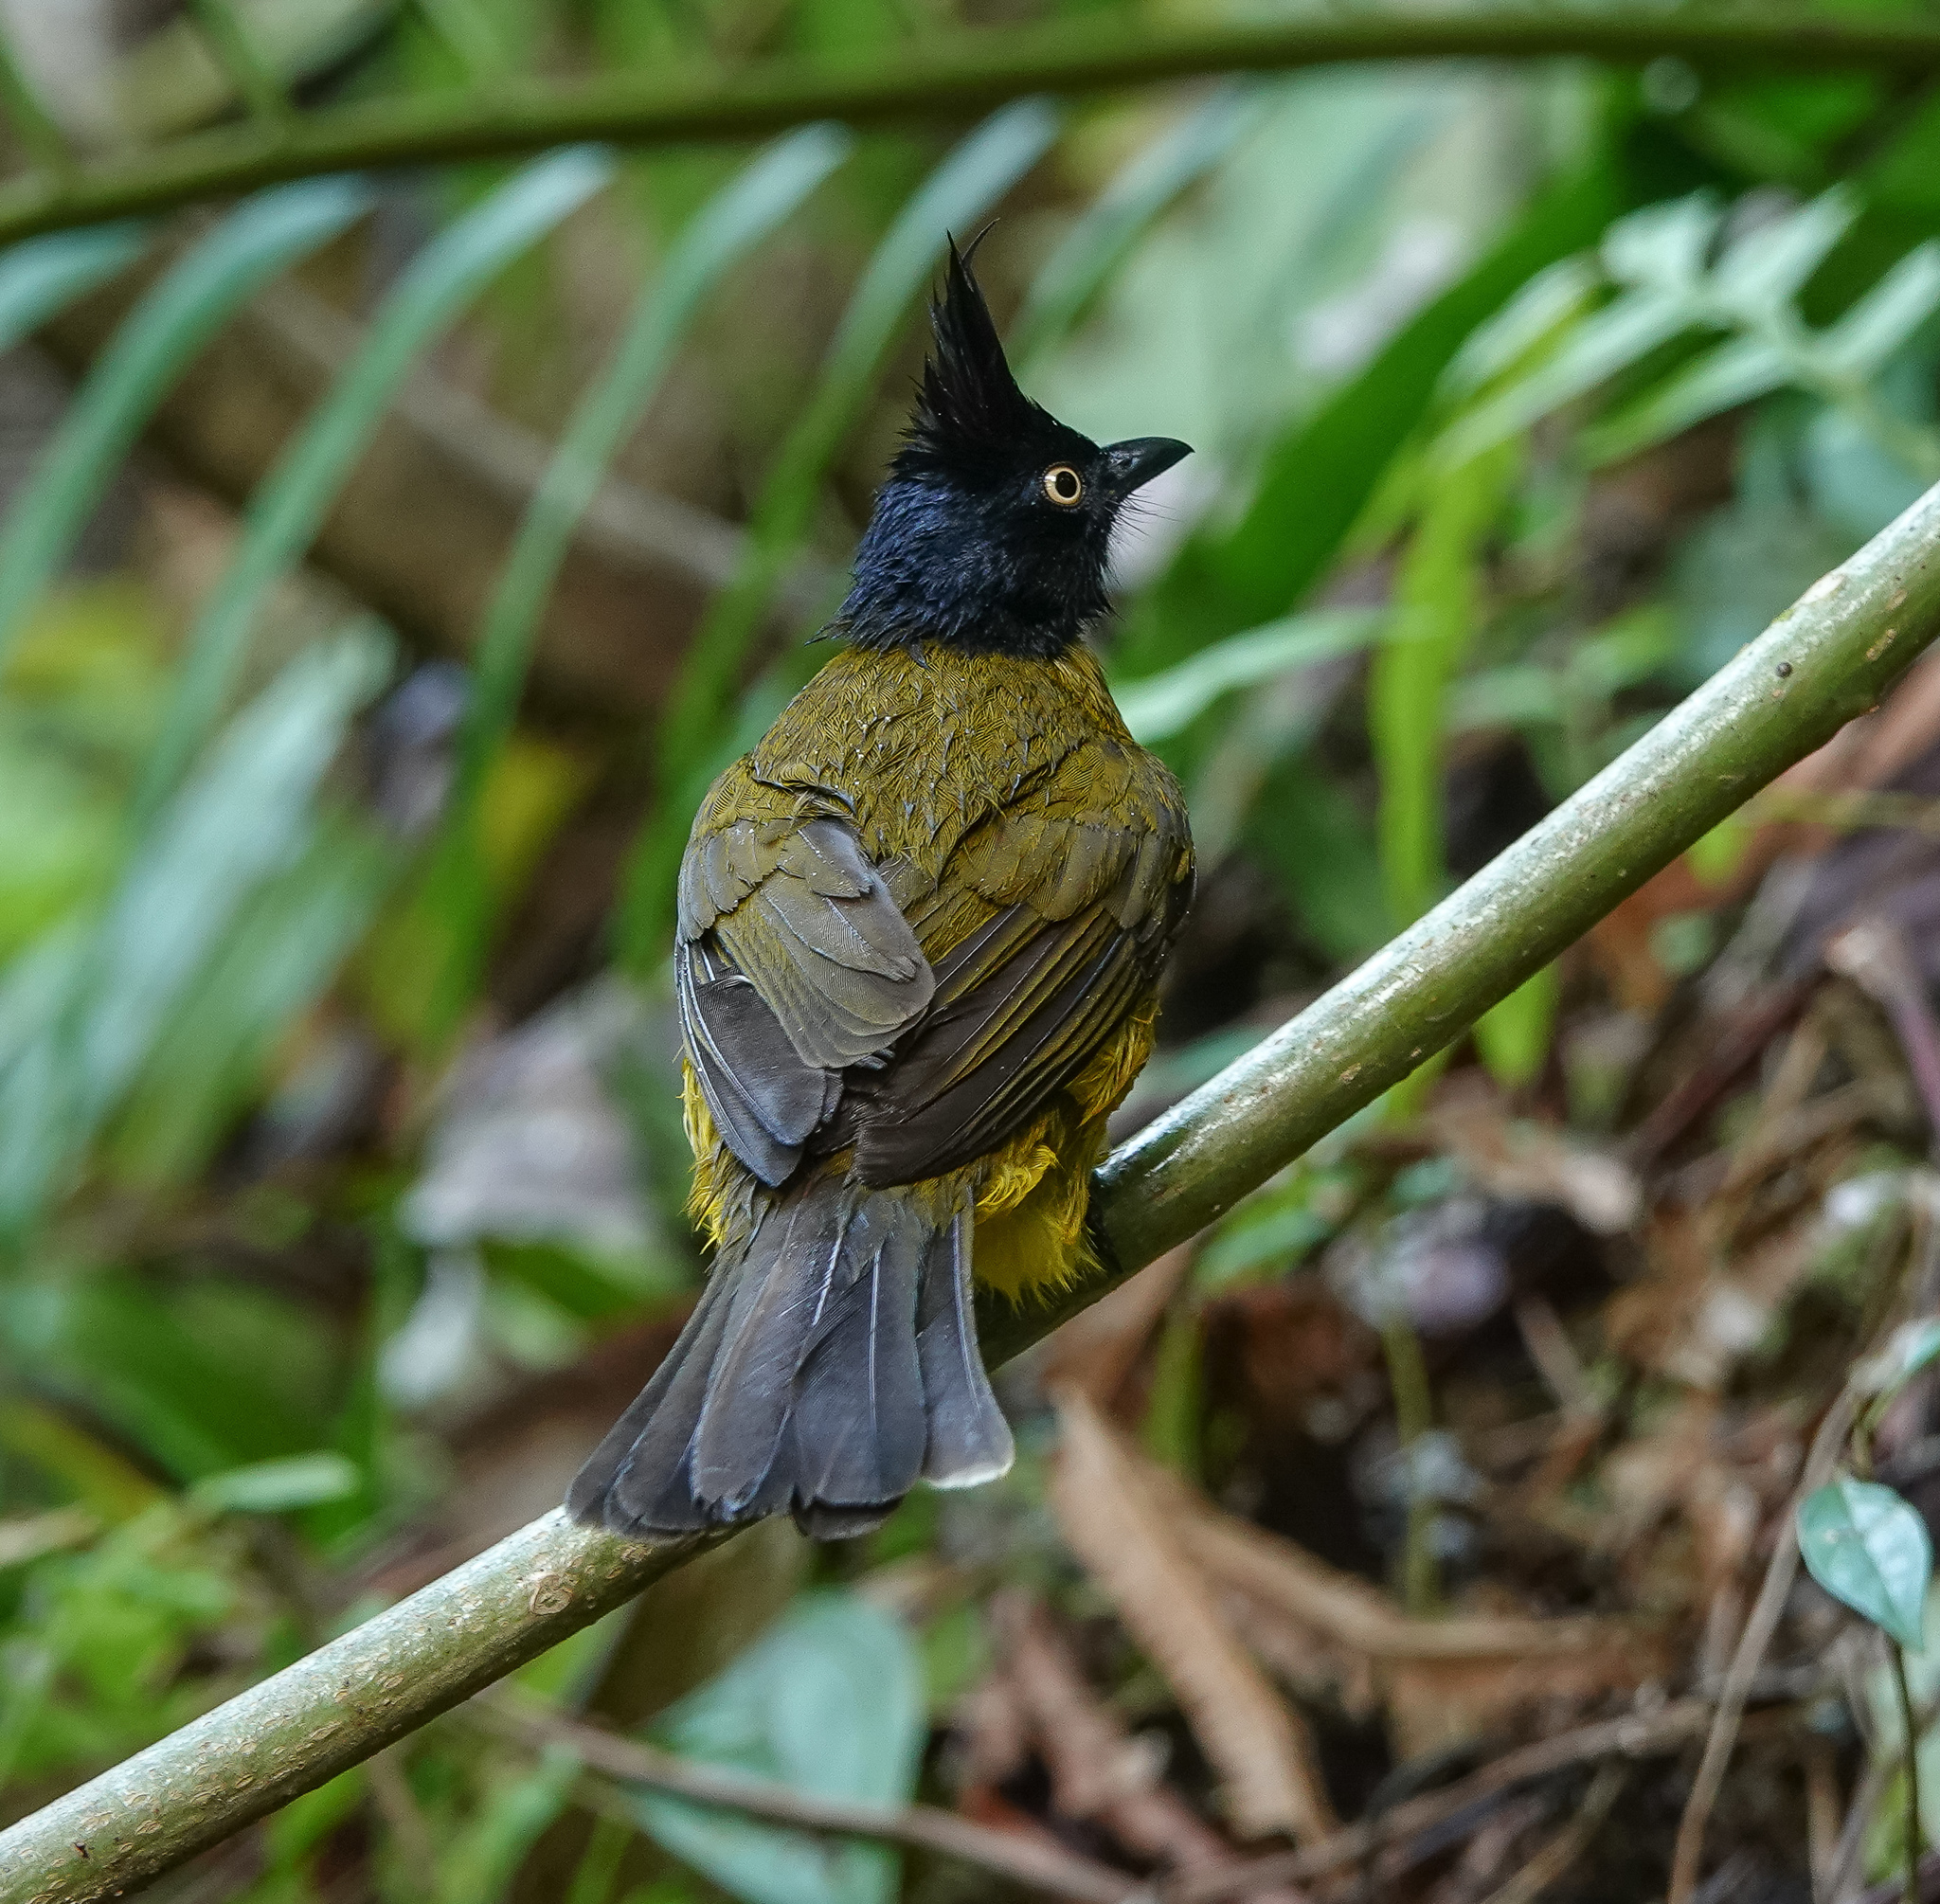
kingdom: Animalia
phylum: Chordata
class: Aves
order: Passeriformes
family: Pycnonotidae
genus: Pycnonotus
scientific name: Pycnonotus flaviventris
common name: Black-crested bulbul
